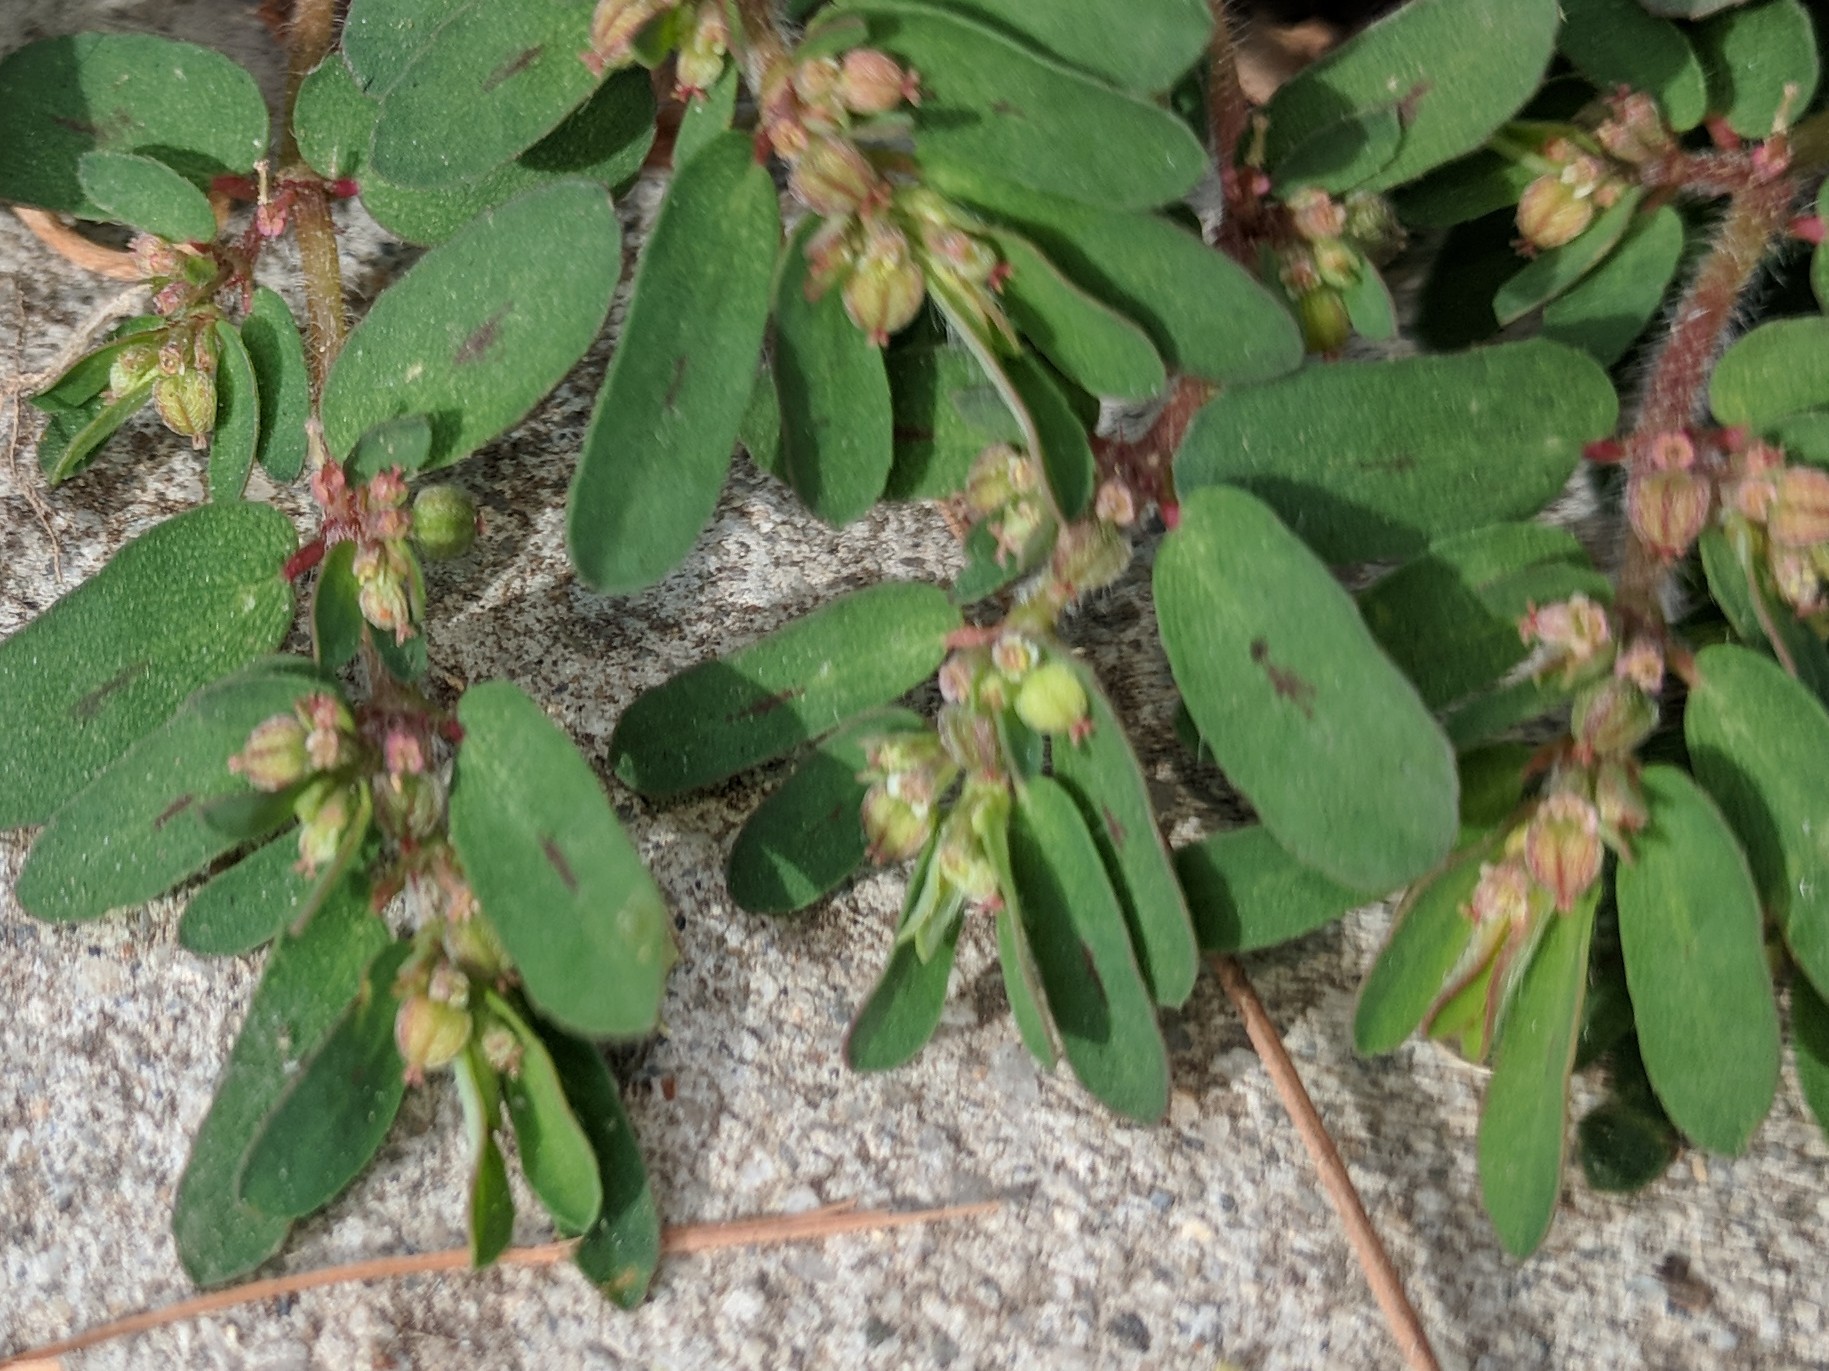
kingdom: Plantae
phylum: Tracheophyta
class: Magnoliopsida
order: Malpighiales
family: Euphorbiaceae
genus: Euphorbia
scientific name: Euphorbia maculata
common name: Spotted spurge
